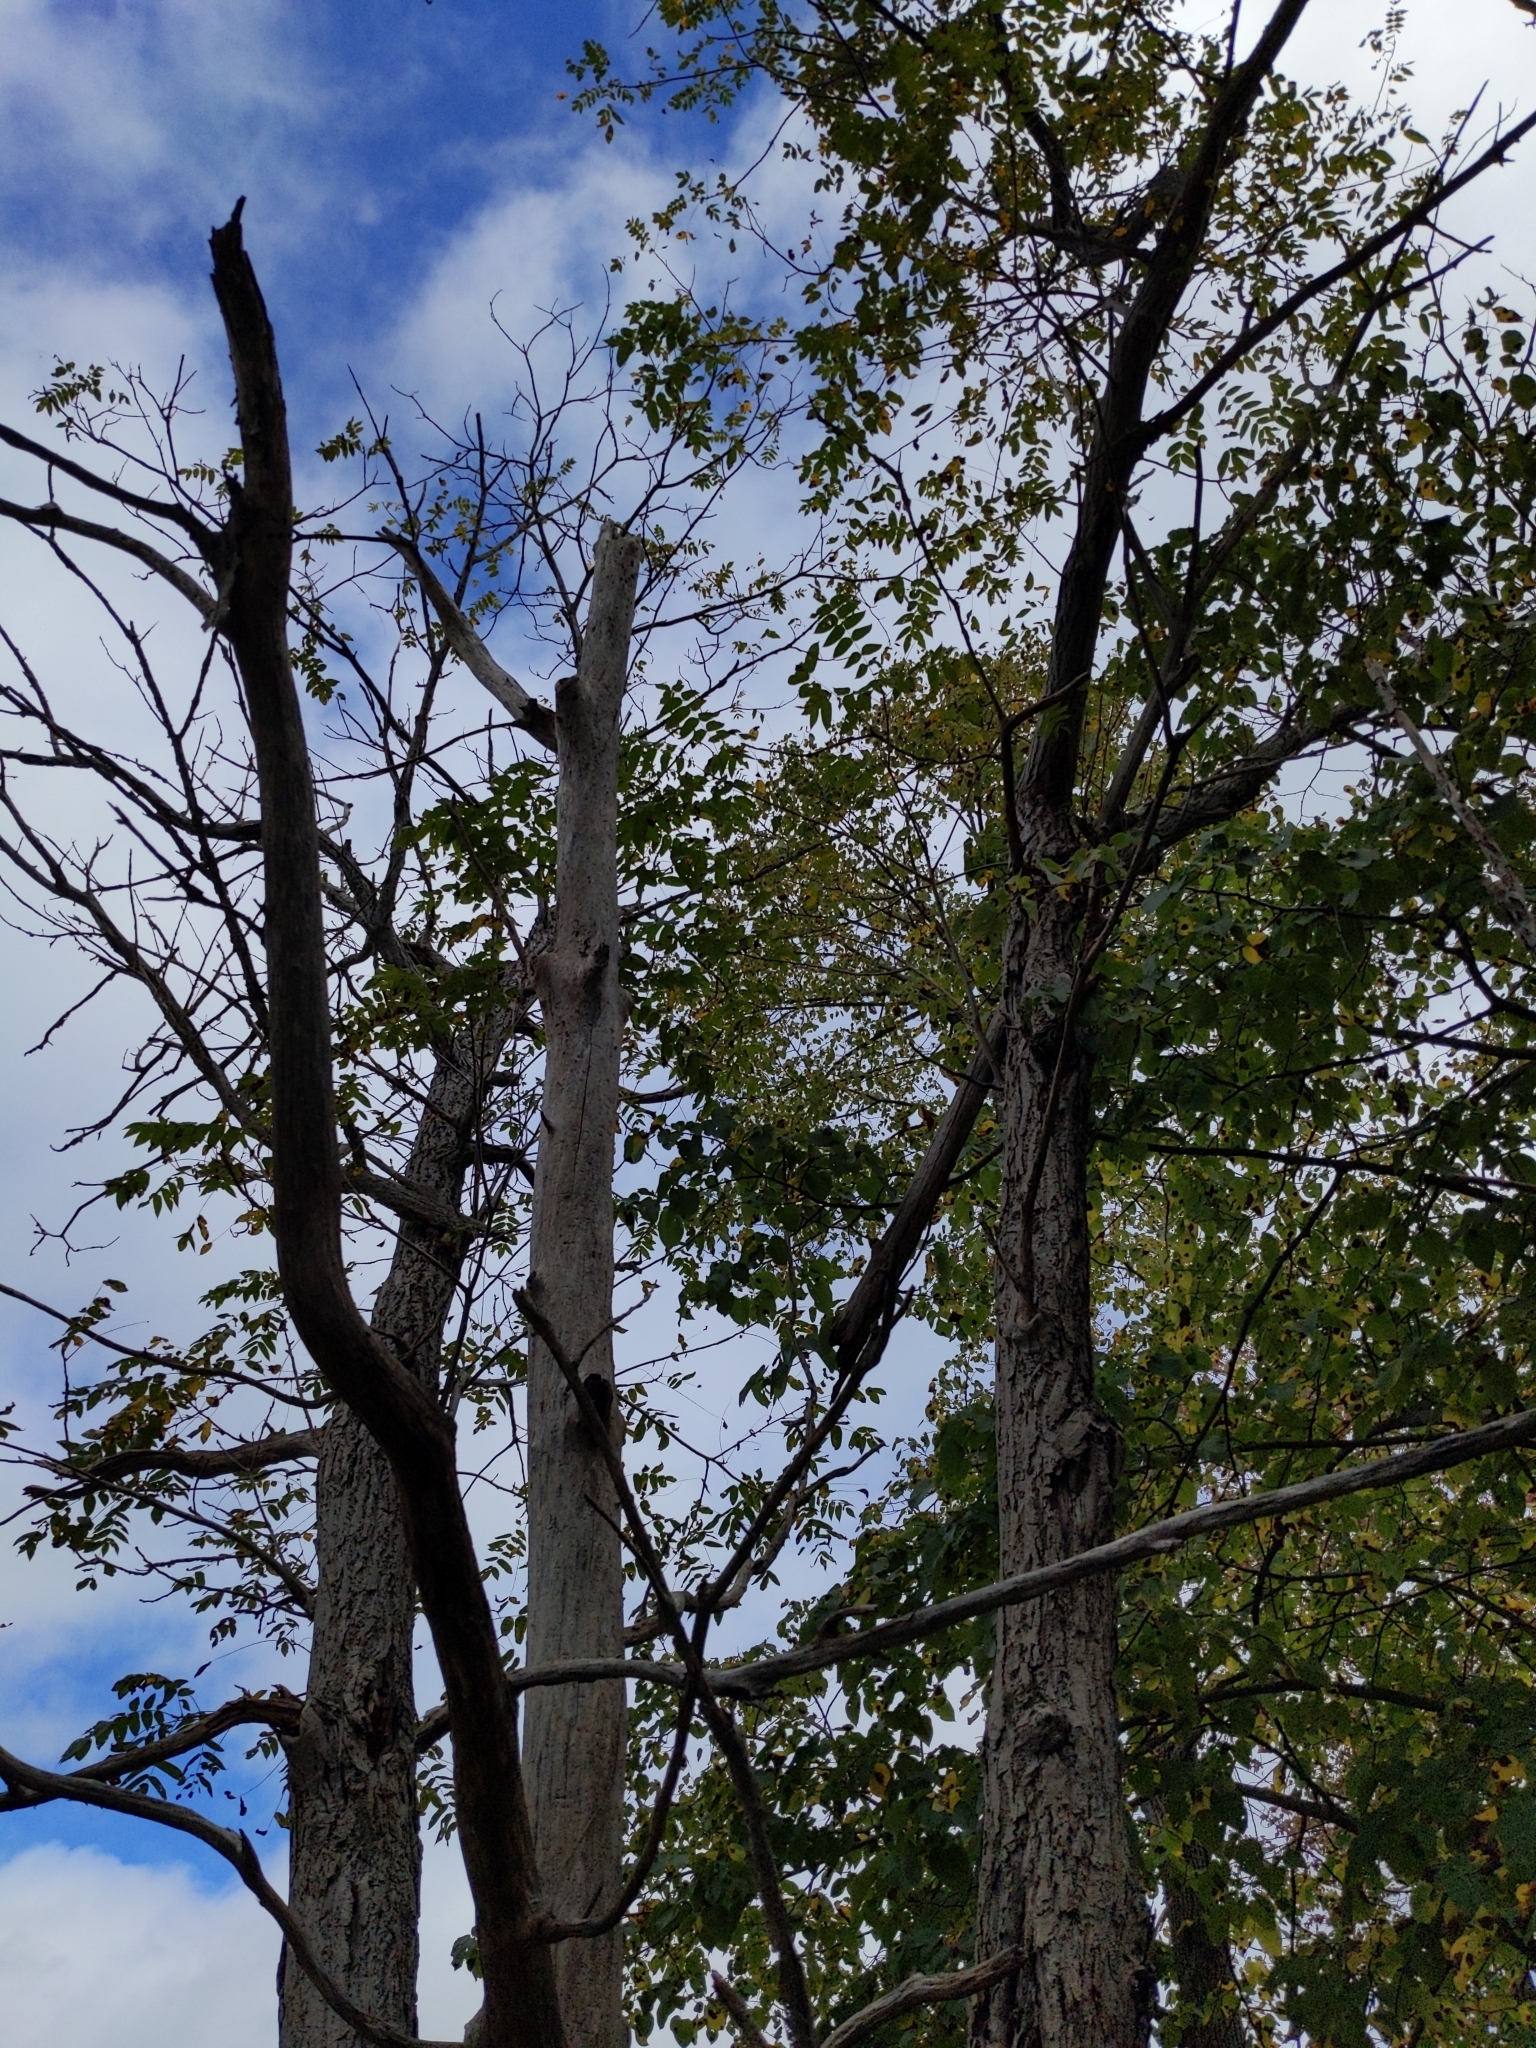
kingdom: Plantae
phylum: Tracheophyta
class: Magnoliopsida
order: Fagales
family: Juglandaceae
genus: Juglans
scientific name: Juglans cinerea
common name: Butternut
